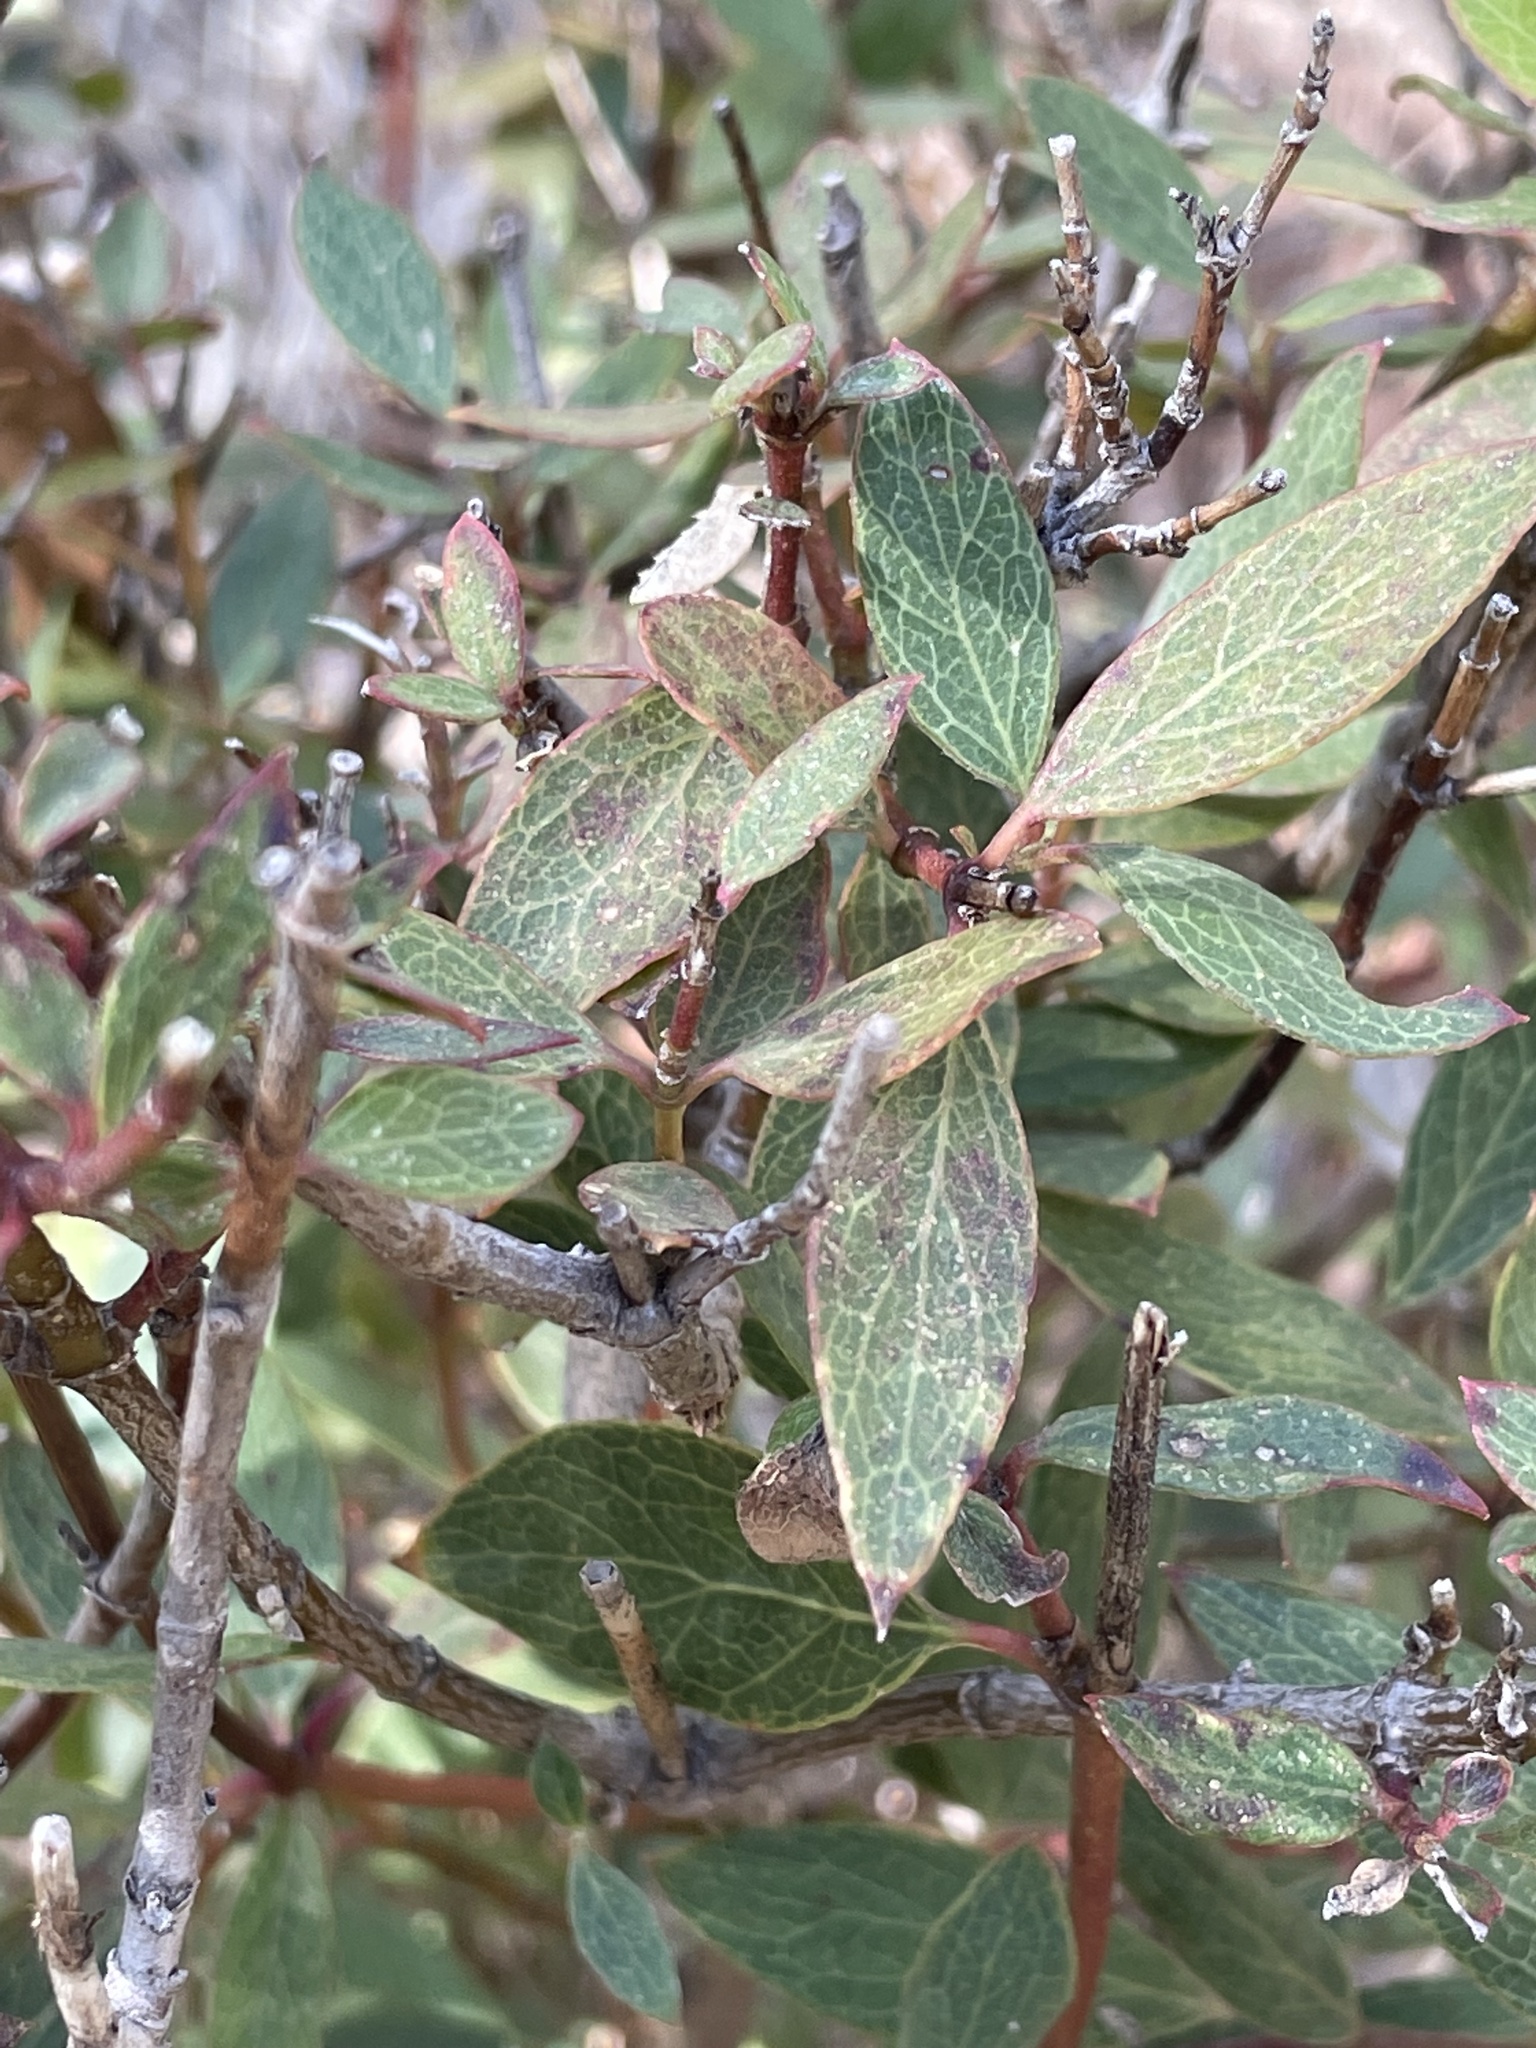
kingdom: Plantae
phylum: Tracheophyta
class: Magnoliopsida
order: Garryales
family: Garryaceae
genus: Garrya
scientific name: Garrya wrightii
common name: Wright's silktassel
